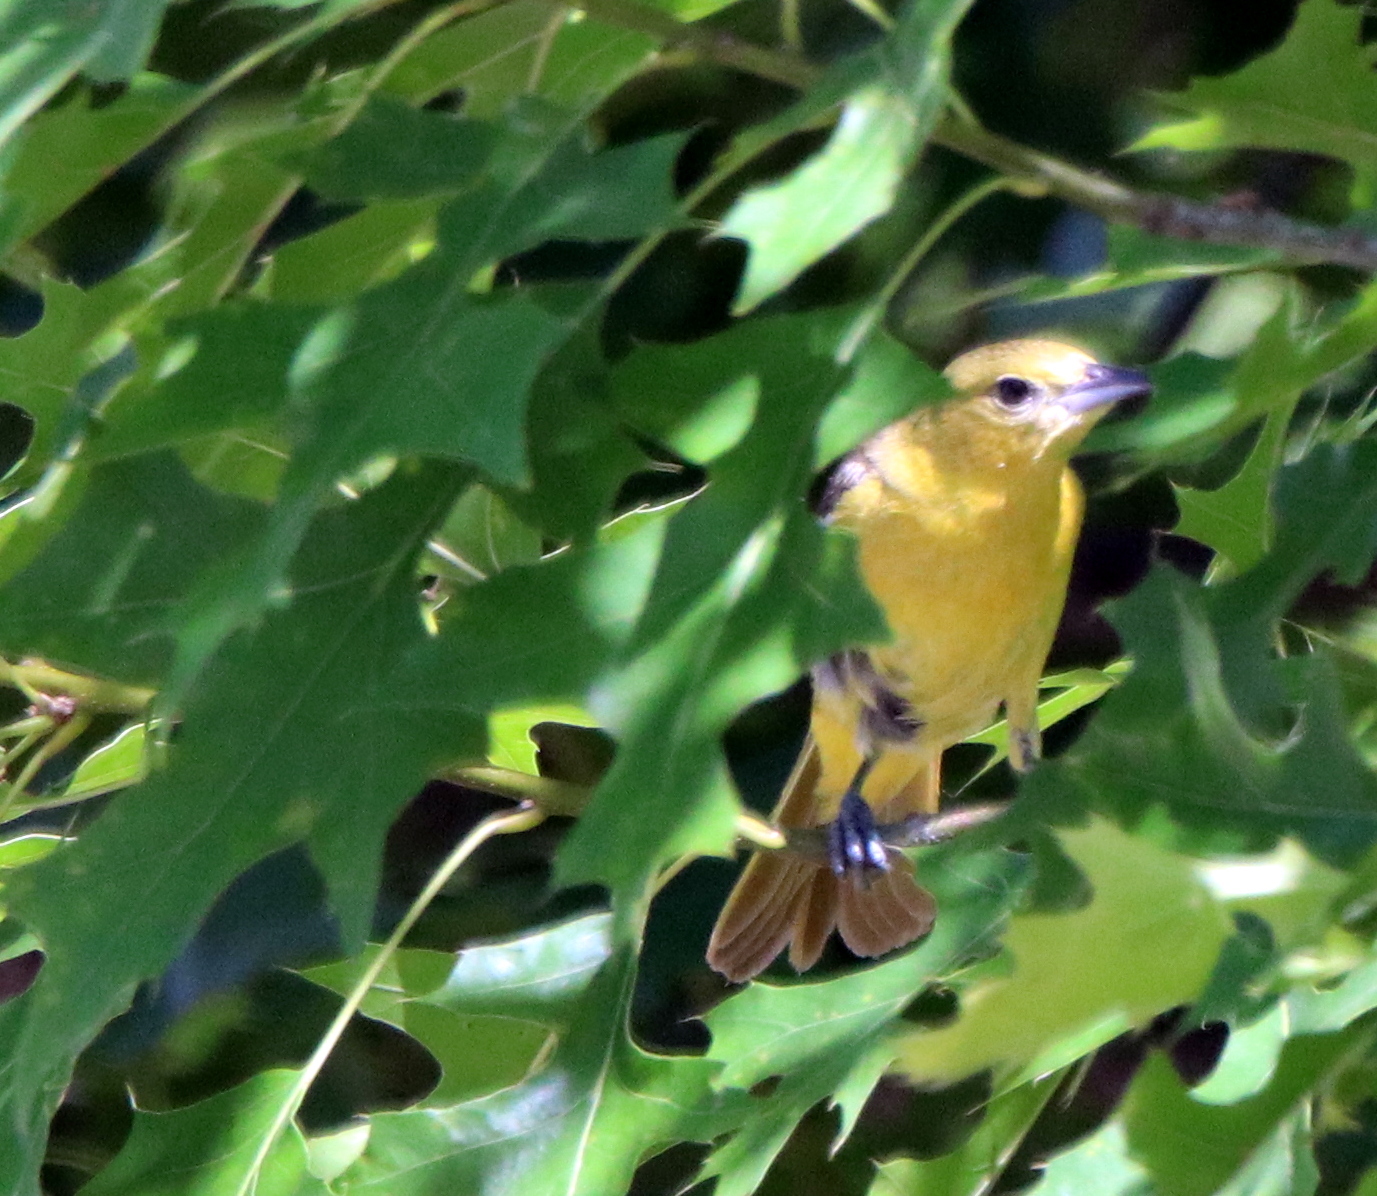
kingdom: Animalia
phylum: Chordata
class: Aves
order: Passeriformes
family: Icteridae
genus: Icterus
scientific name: Icterus spurius
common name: Orchard oriole
